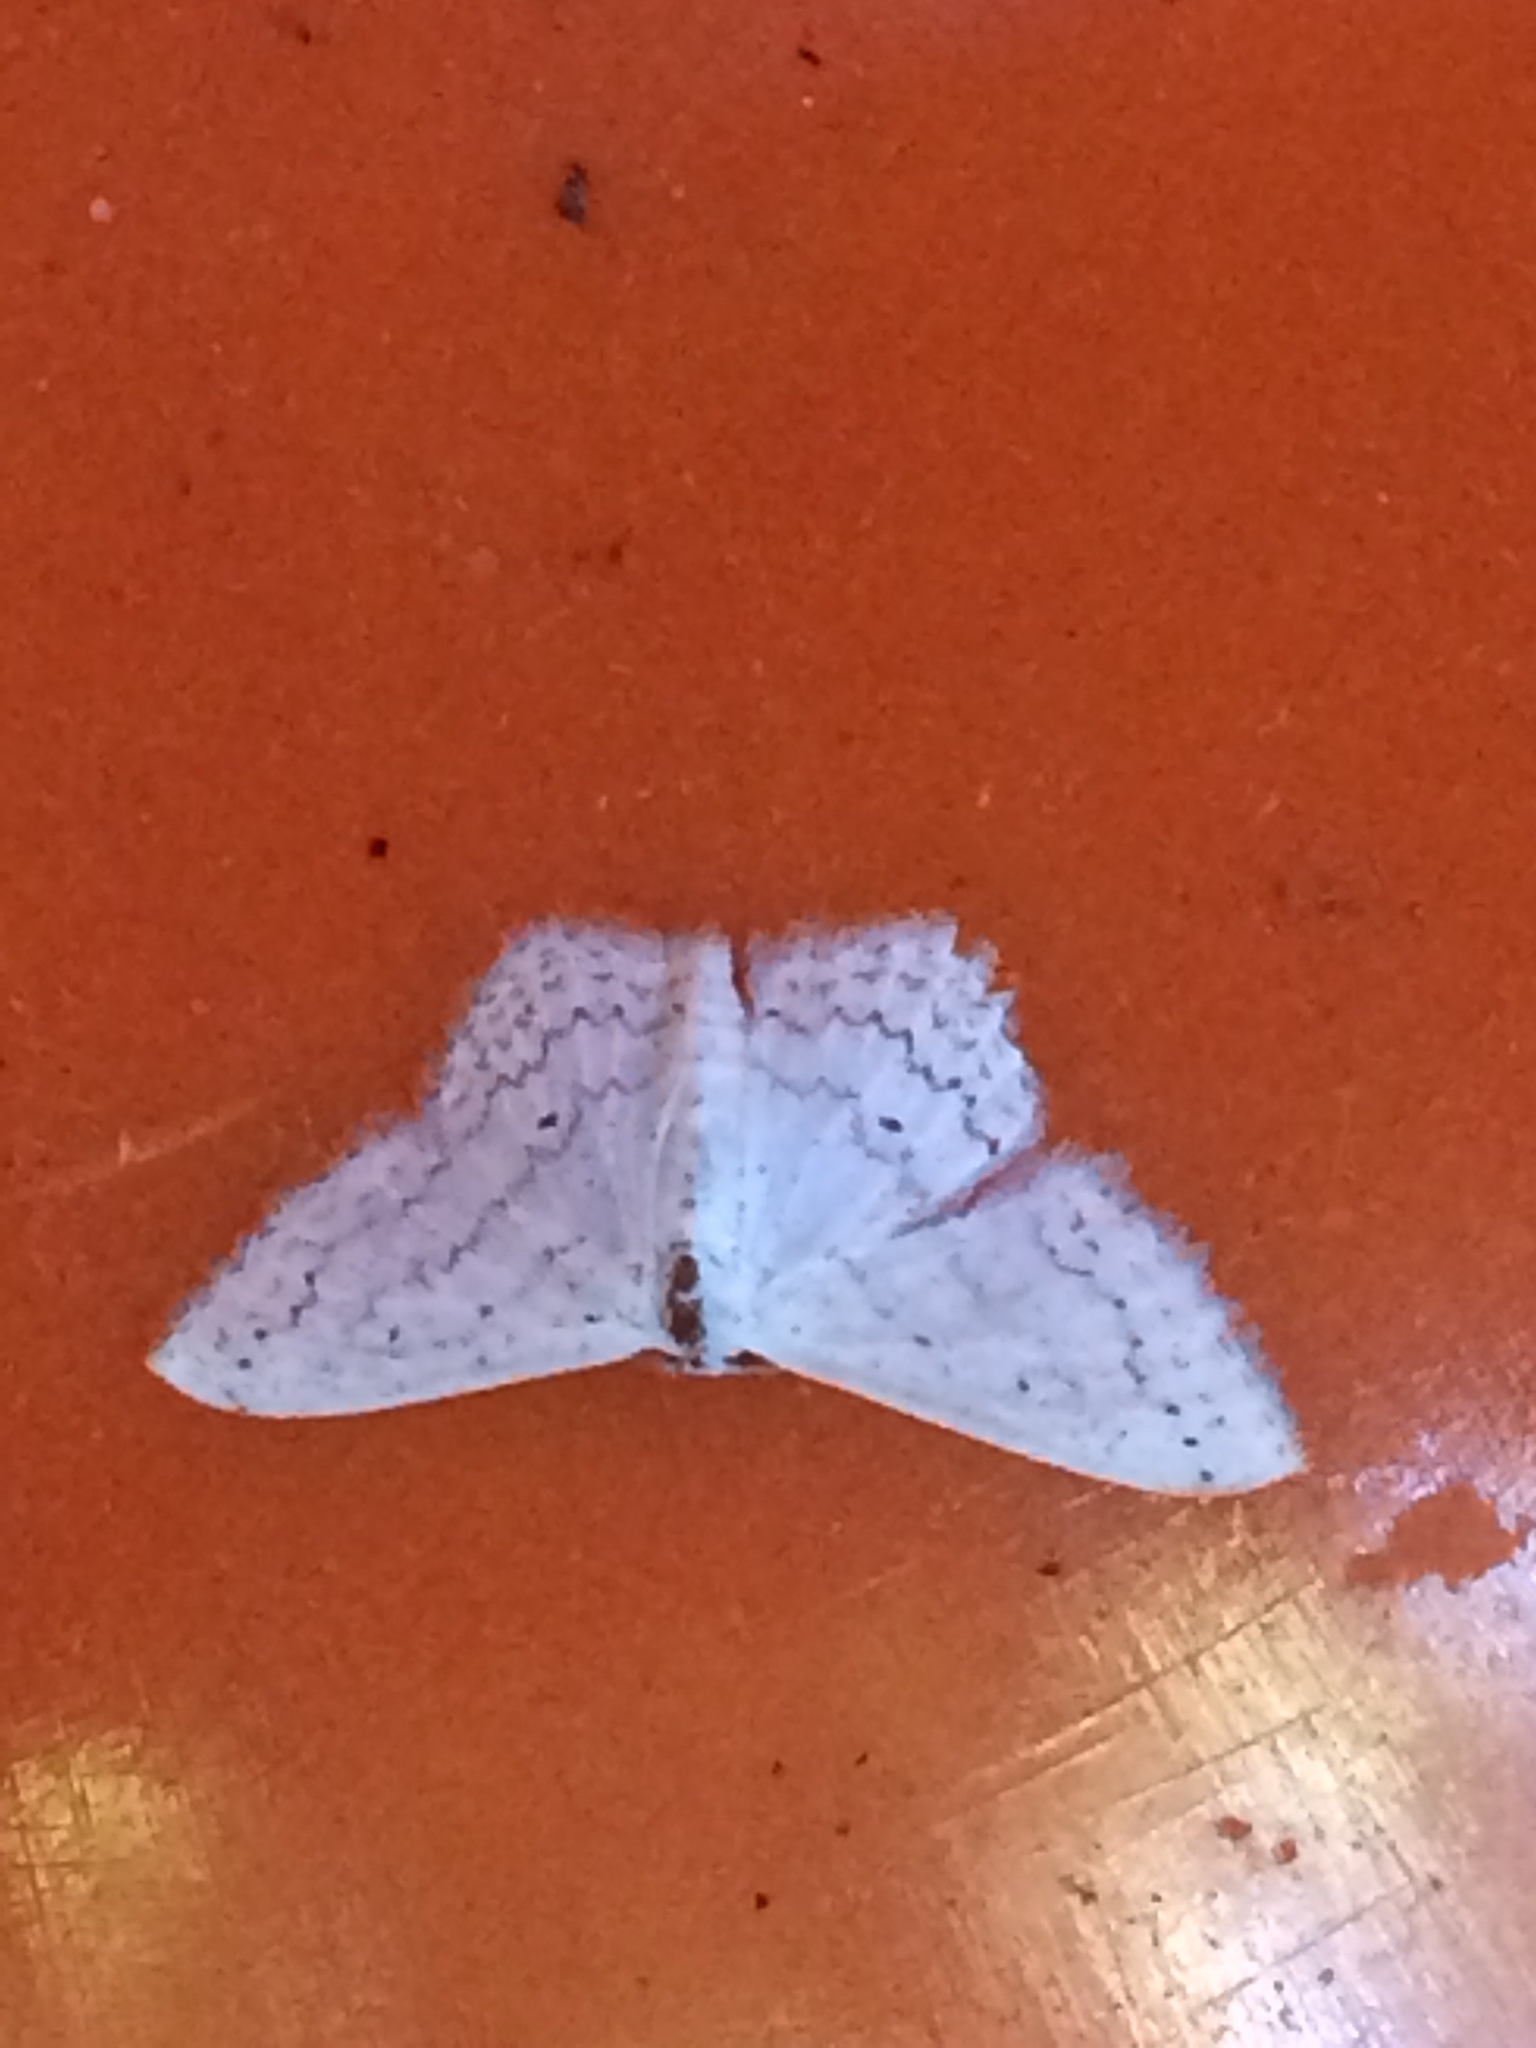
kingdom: Animalia
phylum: Arthropoda
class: Insecta
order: Lepidoptera
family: Geometridae
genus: Idaea
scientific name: Idaea tacturata
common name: Dot-lined wave
